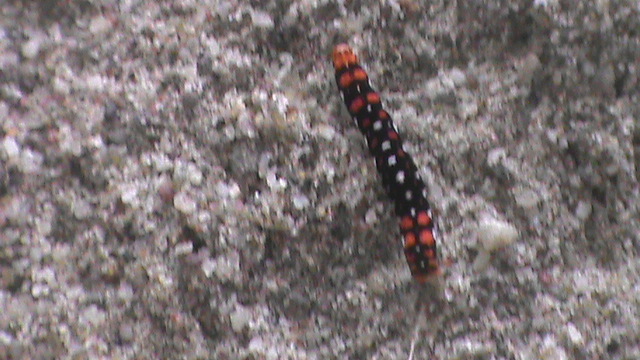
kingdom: Animalia
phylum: Arthropoda
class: Insecta
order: Lepidoptera
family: Noctuidae
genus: Polytela
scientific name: Polytela gloriosae
